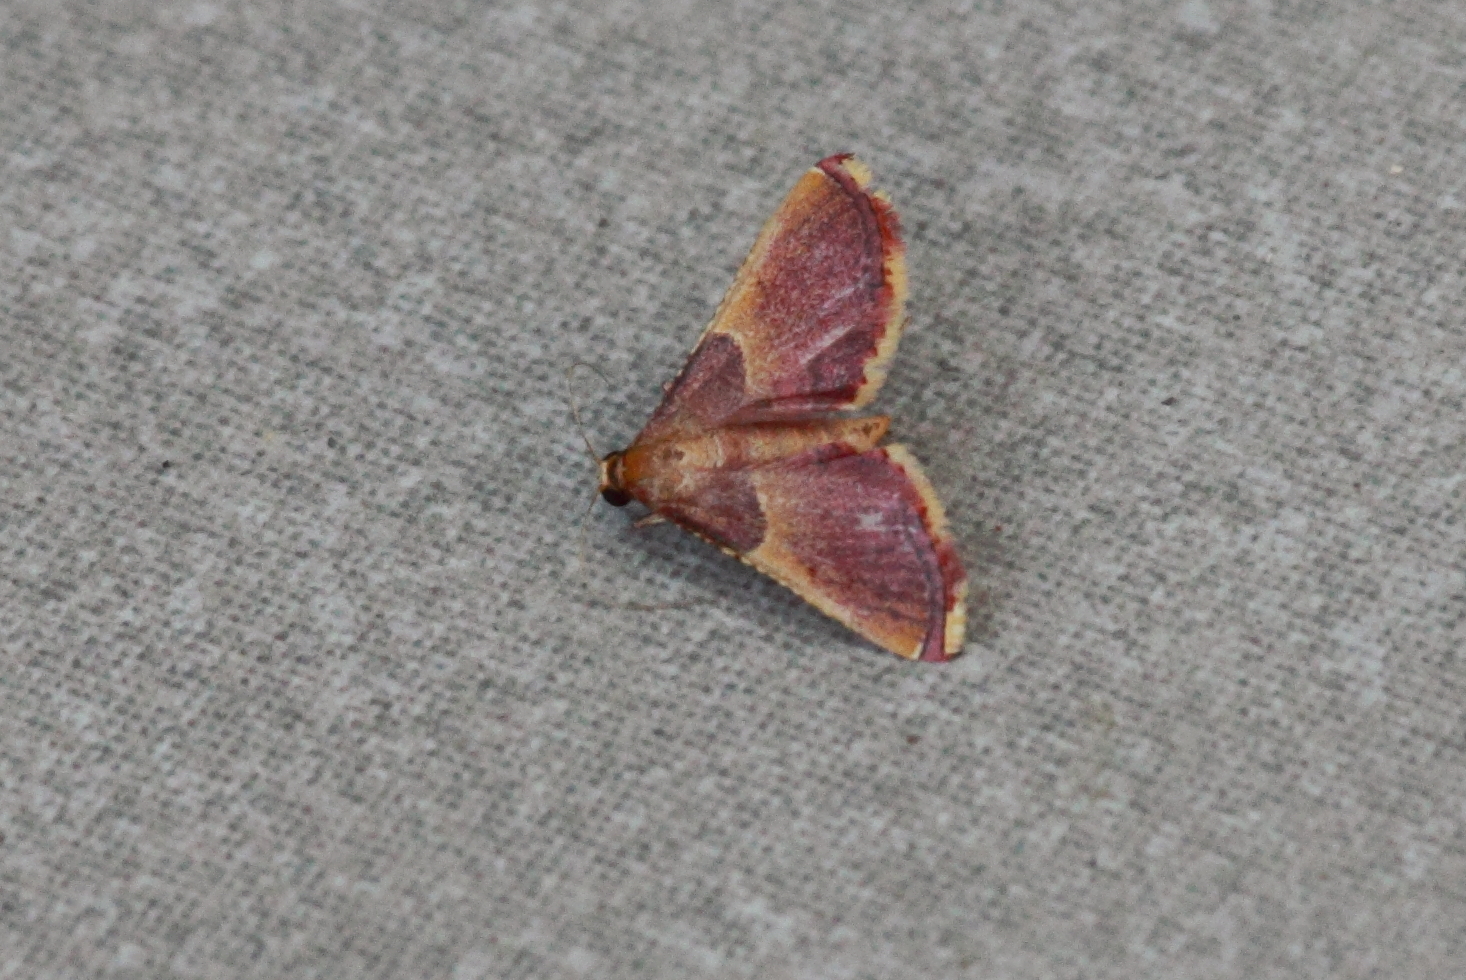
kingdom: Animalia
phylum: Arthropoda
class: Insecta
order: Lepidoptera
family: Pyralidae
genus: Endotricha
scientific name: Endotricha mesenterialis
